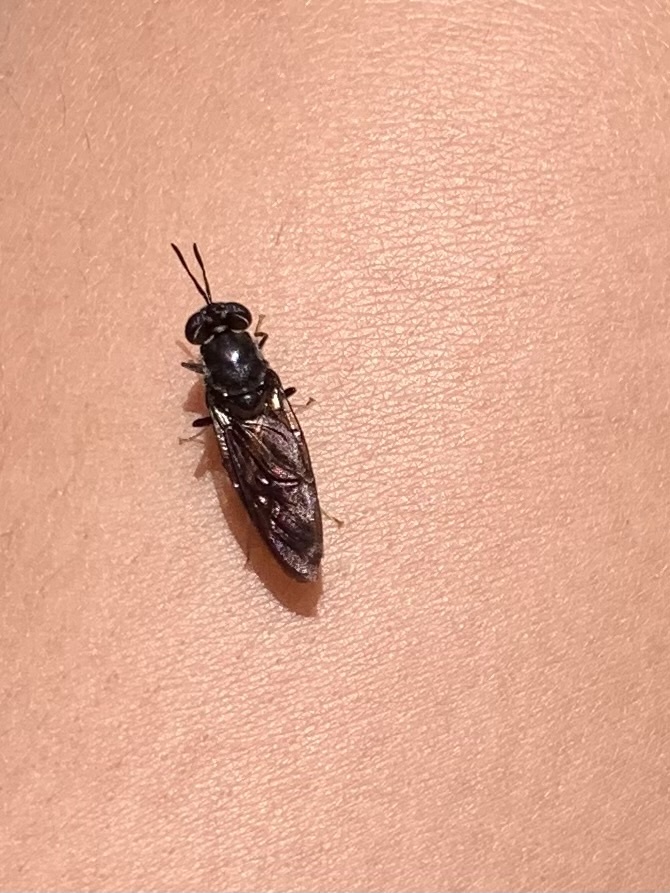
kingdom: Animalia
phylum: Arthropoda
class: Insecta
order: Diptera
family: Stratiomyidae
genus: Hermetia
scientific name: Hermetia illucens
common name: Black soldier fly
